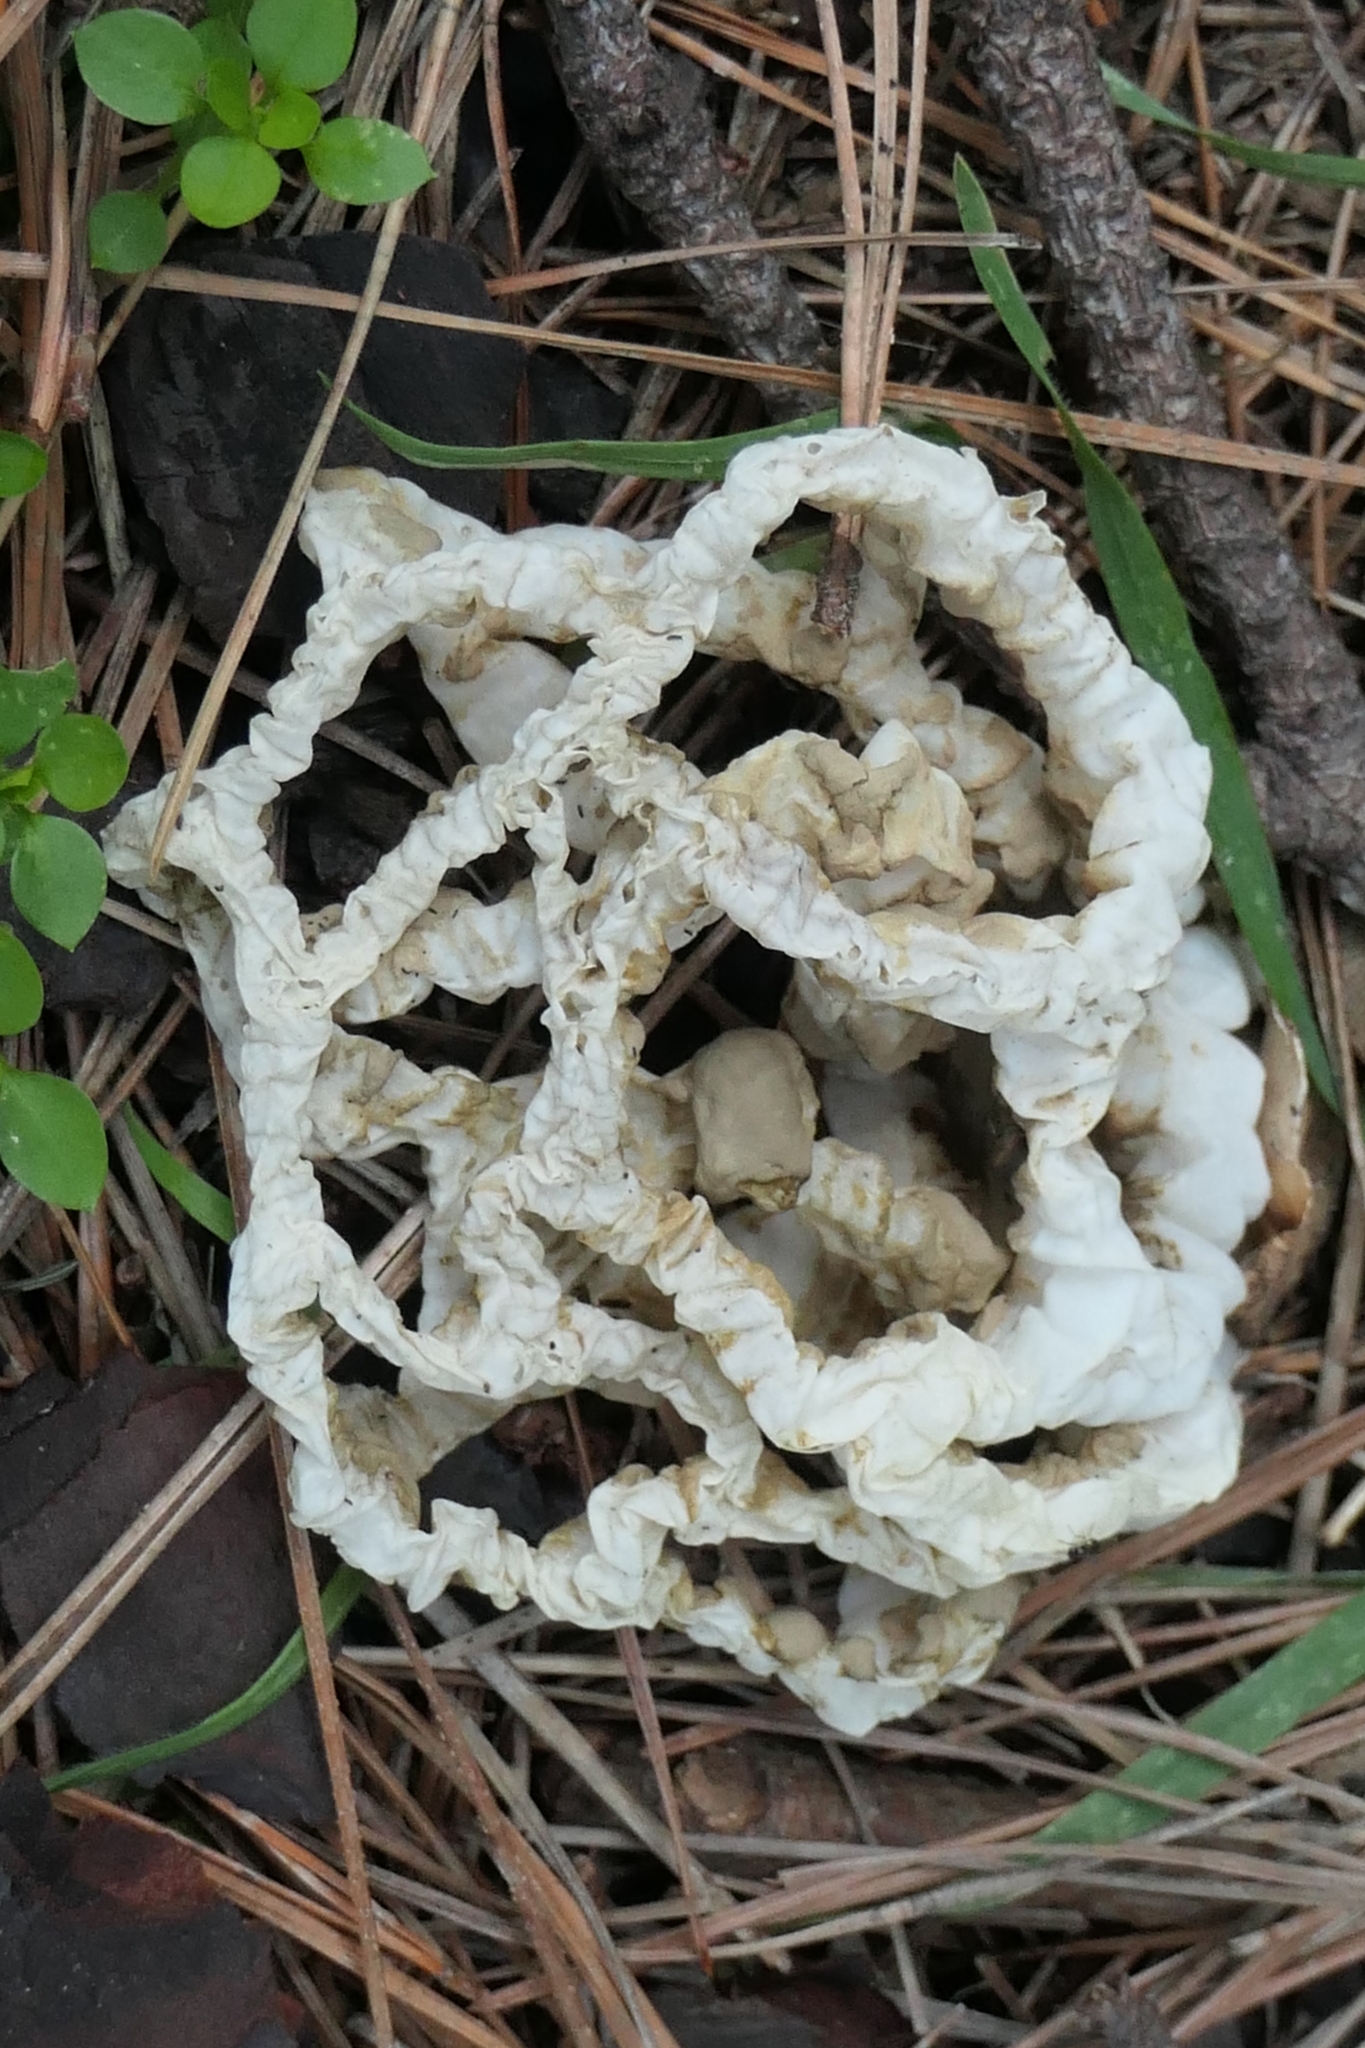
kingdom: Fungi
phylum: Basidiomycota
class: Agaricomycetes
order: Phallales
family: Phallaceae
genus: Ileodictyon
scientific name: Ileodictyon cibarium
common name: Basket fungus
